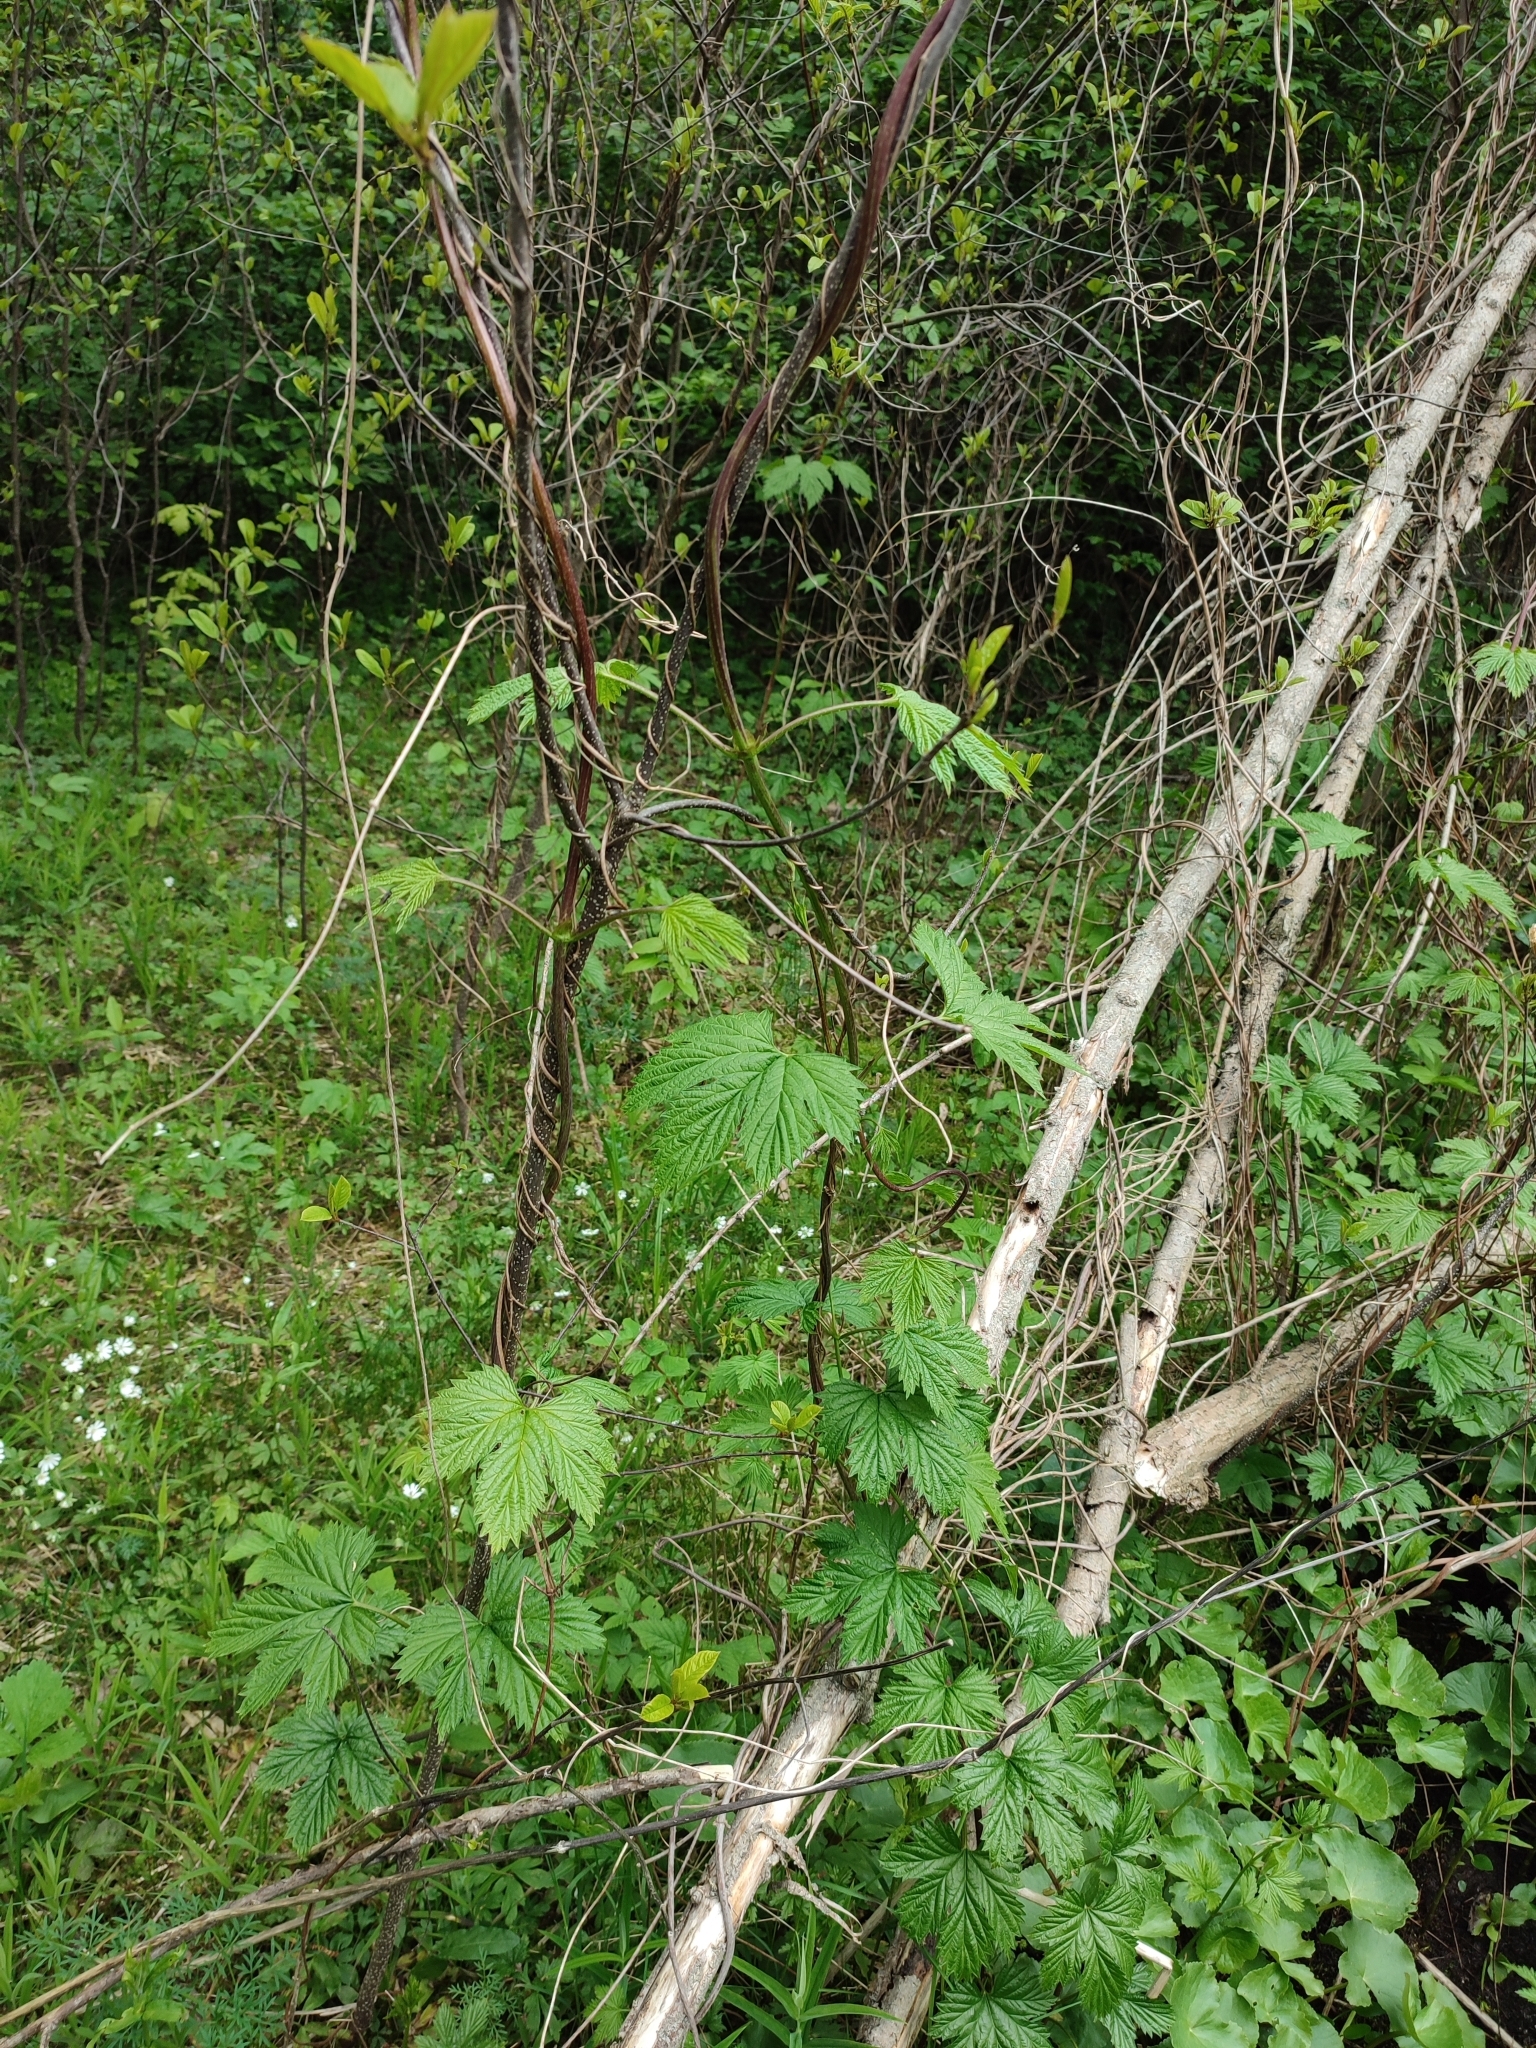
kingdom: Plantae
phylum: Tracheophyta
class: Magnoliopsida
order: Rosales
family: Cannabaceae
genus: Humulus
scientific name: Humulus lupulus
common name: Hop
